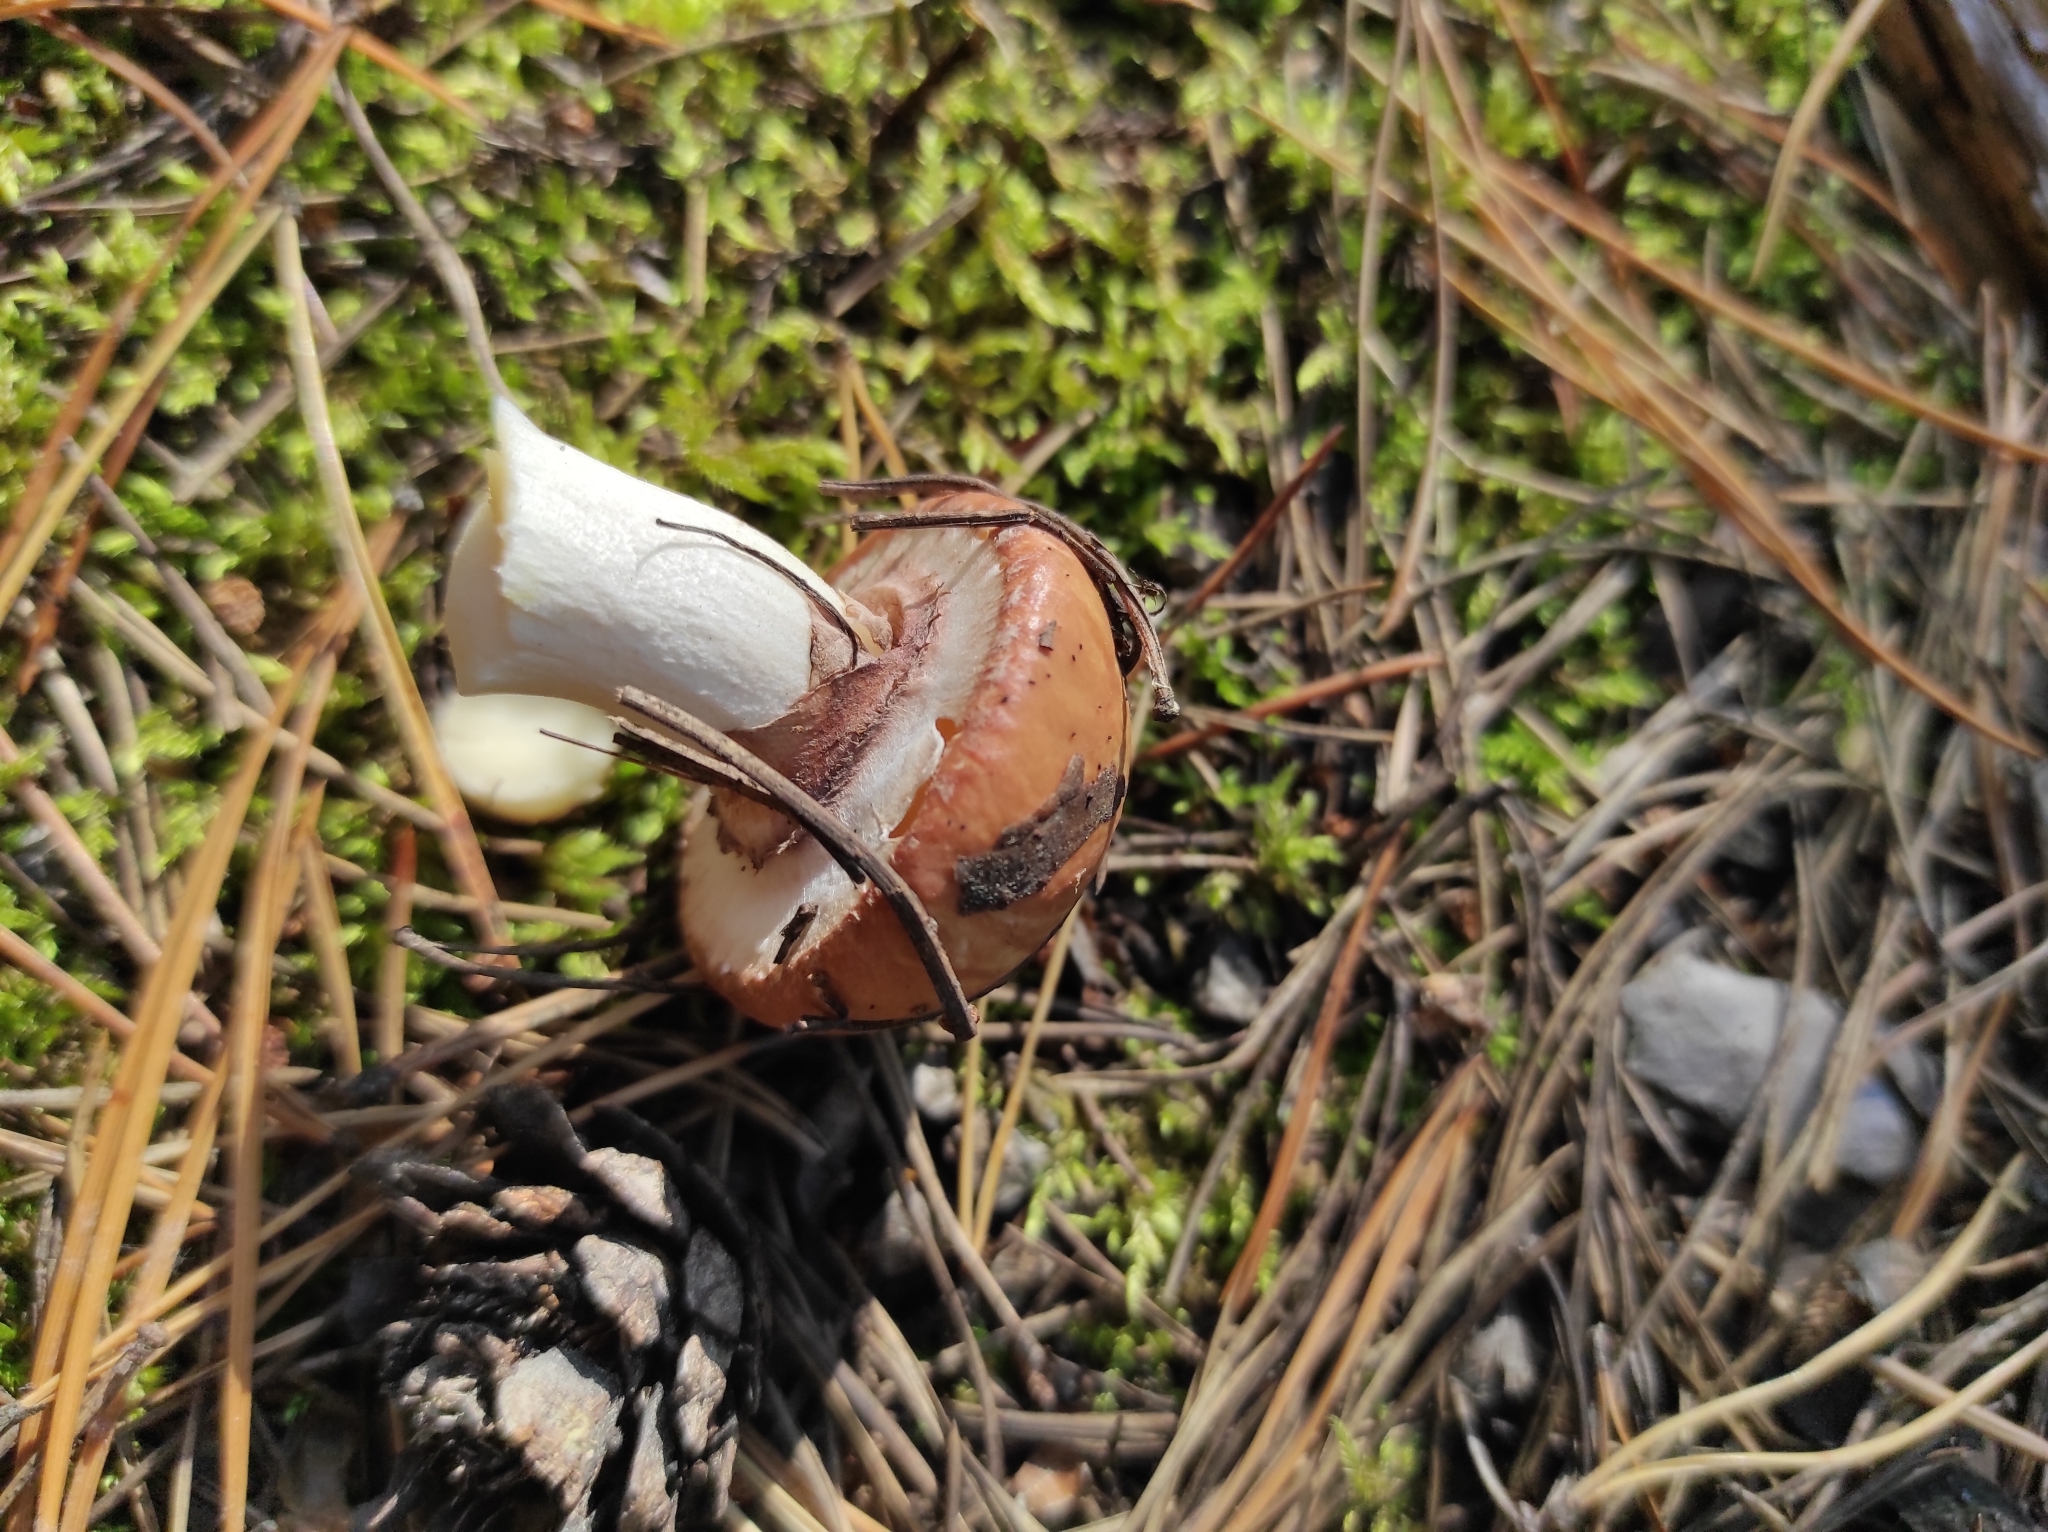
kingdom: Fungi
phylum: Basidiomycota
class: Agaricomycetes
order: Boletales
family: Suillaceae
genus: Suillus
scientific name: Suillus luteus
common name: Slippery jack
